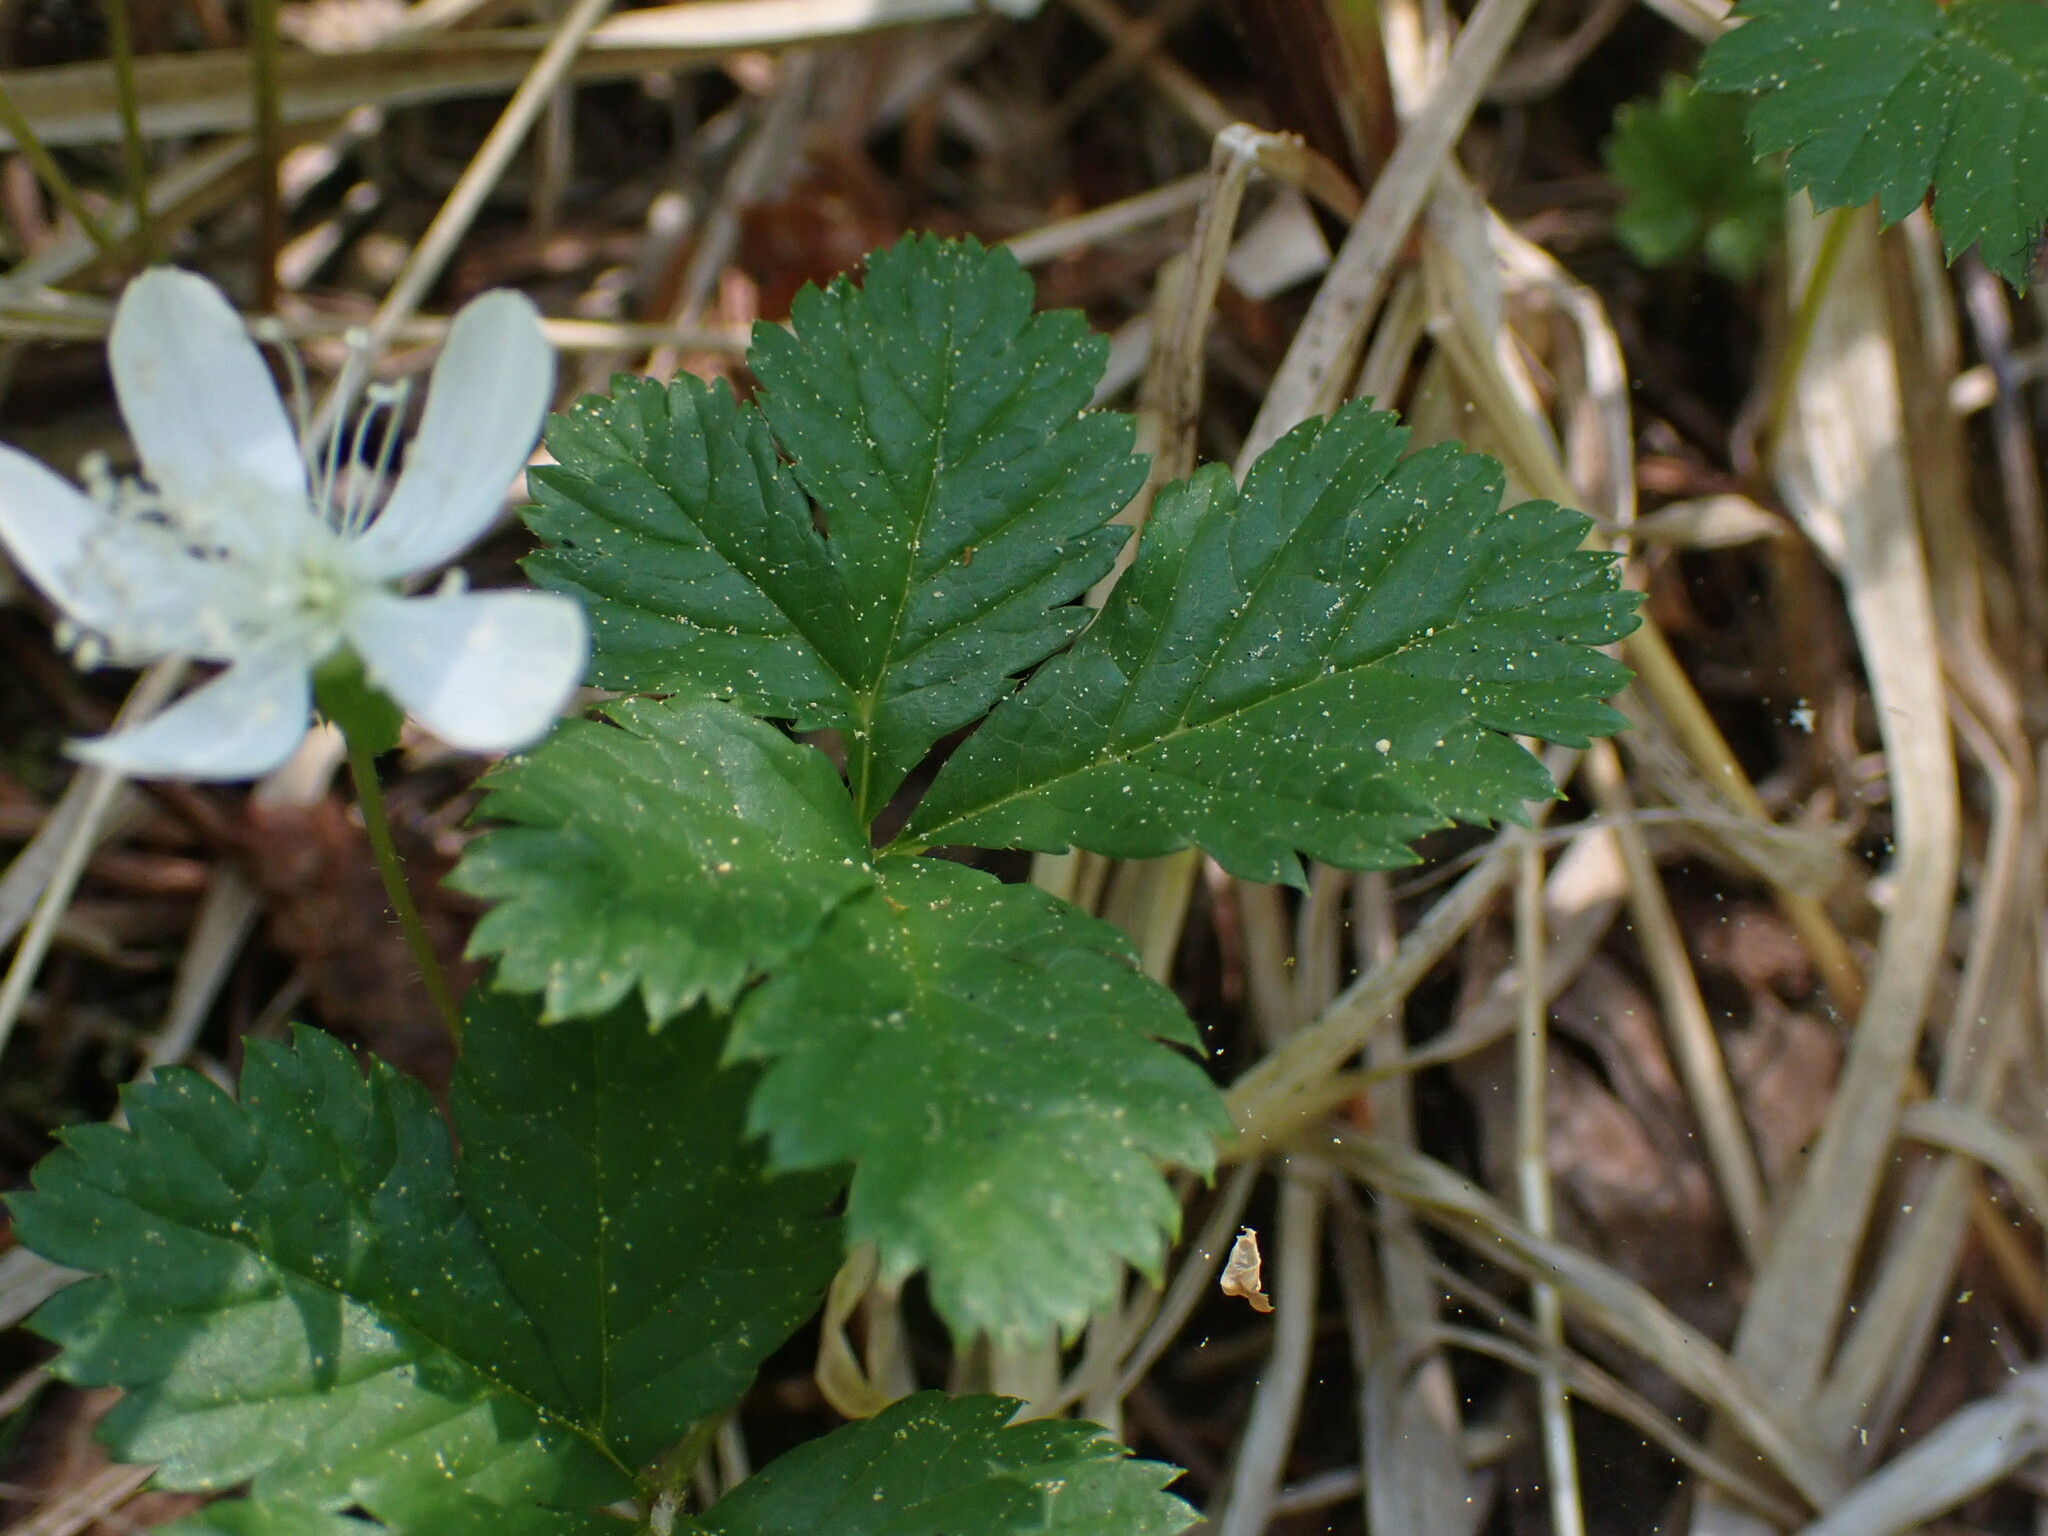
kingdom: Plantae
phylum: Tracheophyta
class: Magnoliopsida
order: Rosales
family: Rosaceae
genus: Rubus
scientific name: Rubus pedatus
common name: Creeping raspberry
